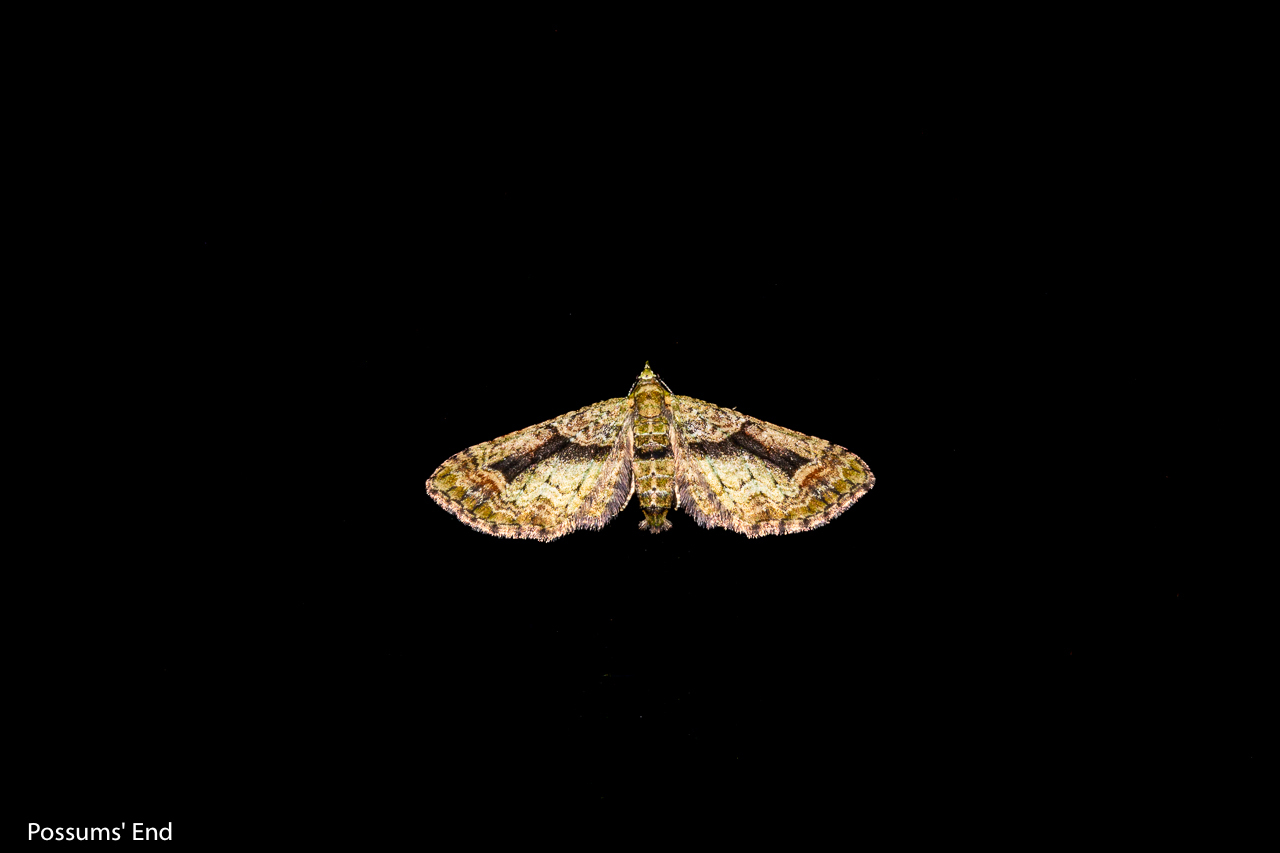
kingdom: Animalia
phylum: Arthropoda
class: Insecta
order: Lepidoptera
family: Geometridae
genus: Pasiphila
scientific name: Pasiphila suffusa
